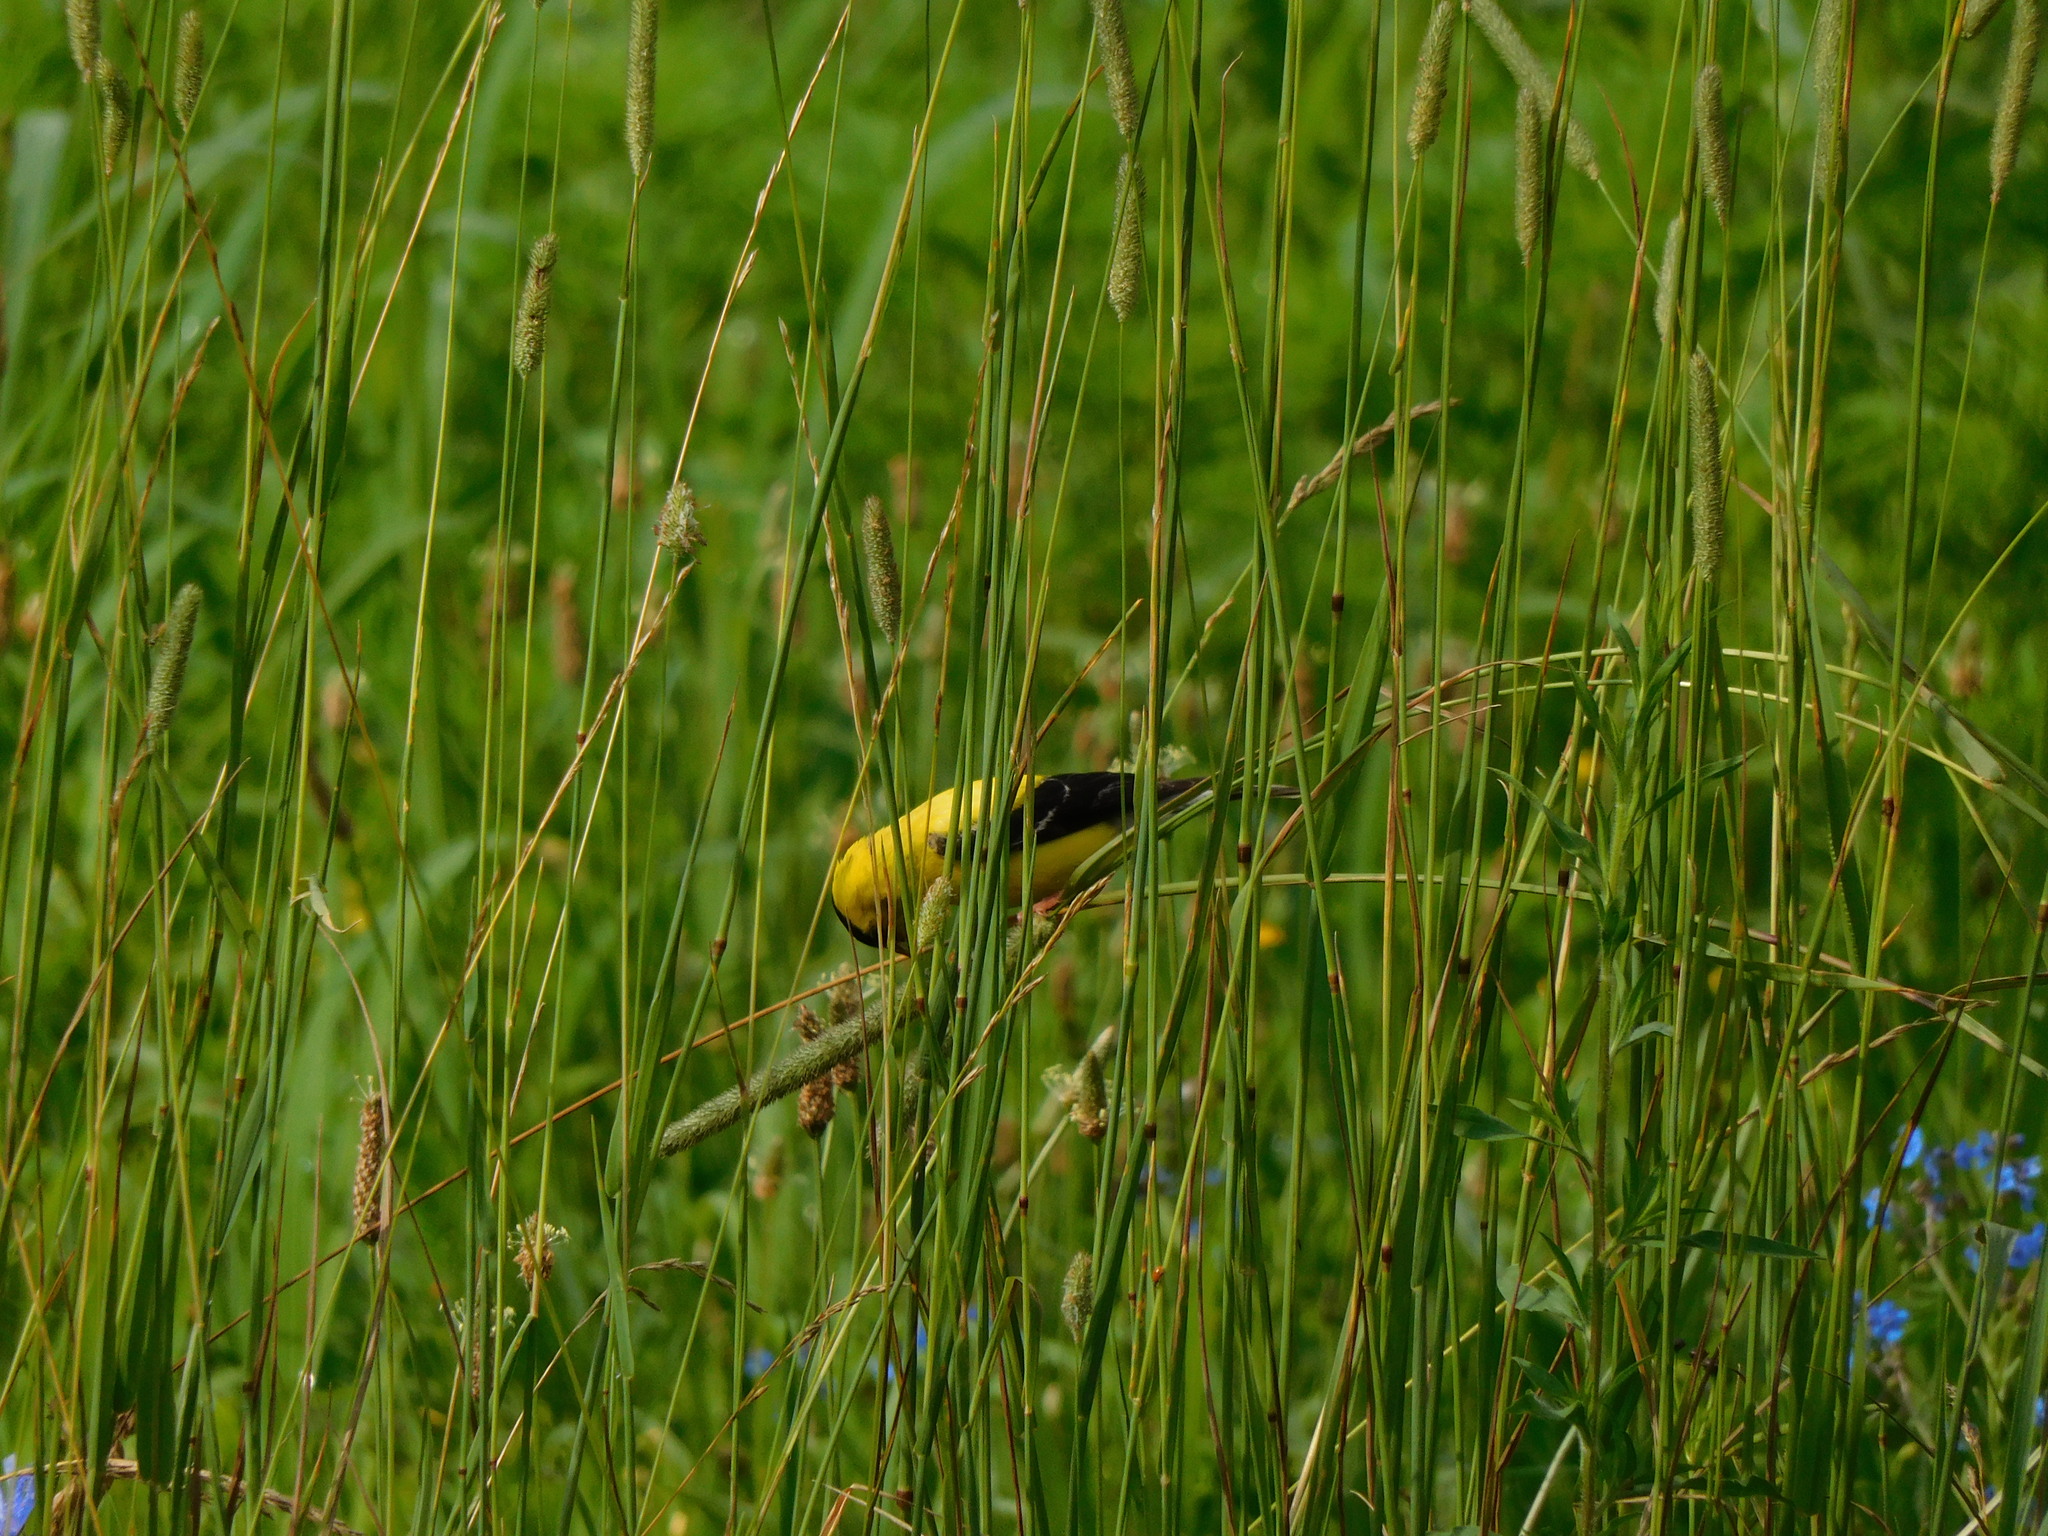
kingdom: Animalia
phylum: Chordata
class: Aves
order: Passeriformes
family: Fringillidae
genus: Spinus
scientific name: Spinus tristis
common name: American goldfinch
